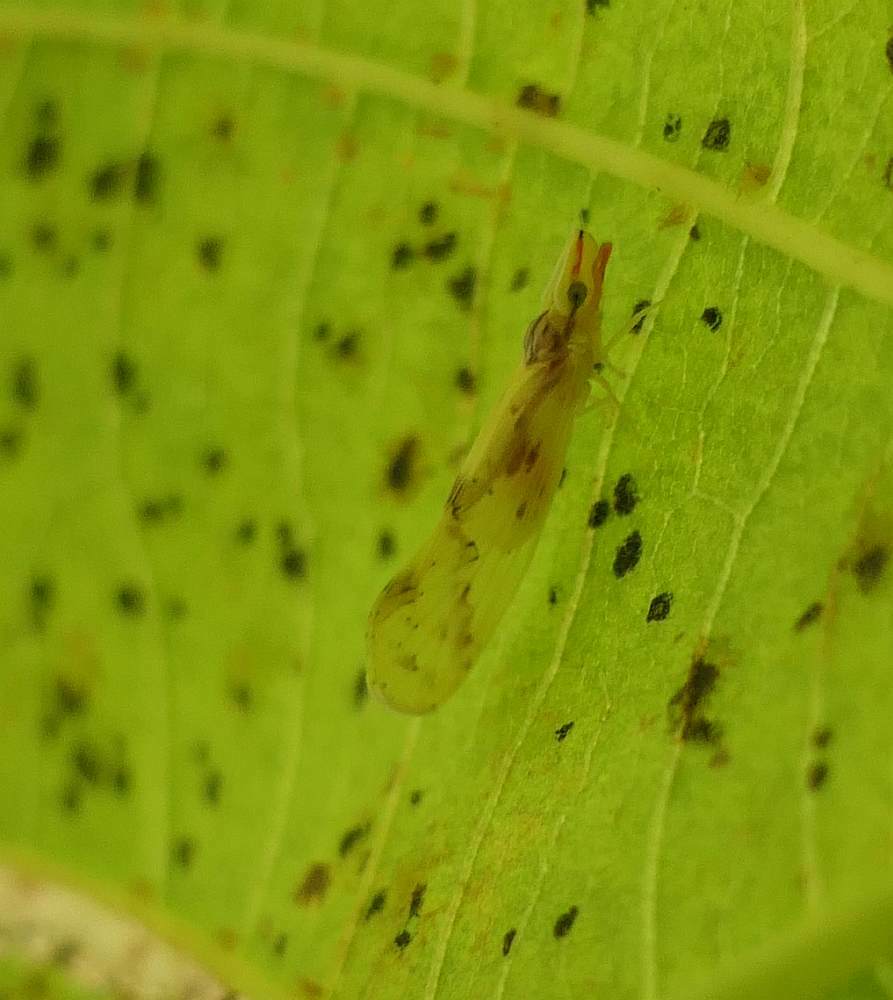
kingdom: Animalia
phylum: Arthropoda
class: Insecta
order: Hemiptera
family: Derbidae
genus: Otiocerus
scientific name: Otiocerus wolfii
